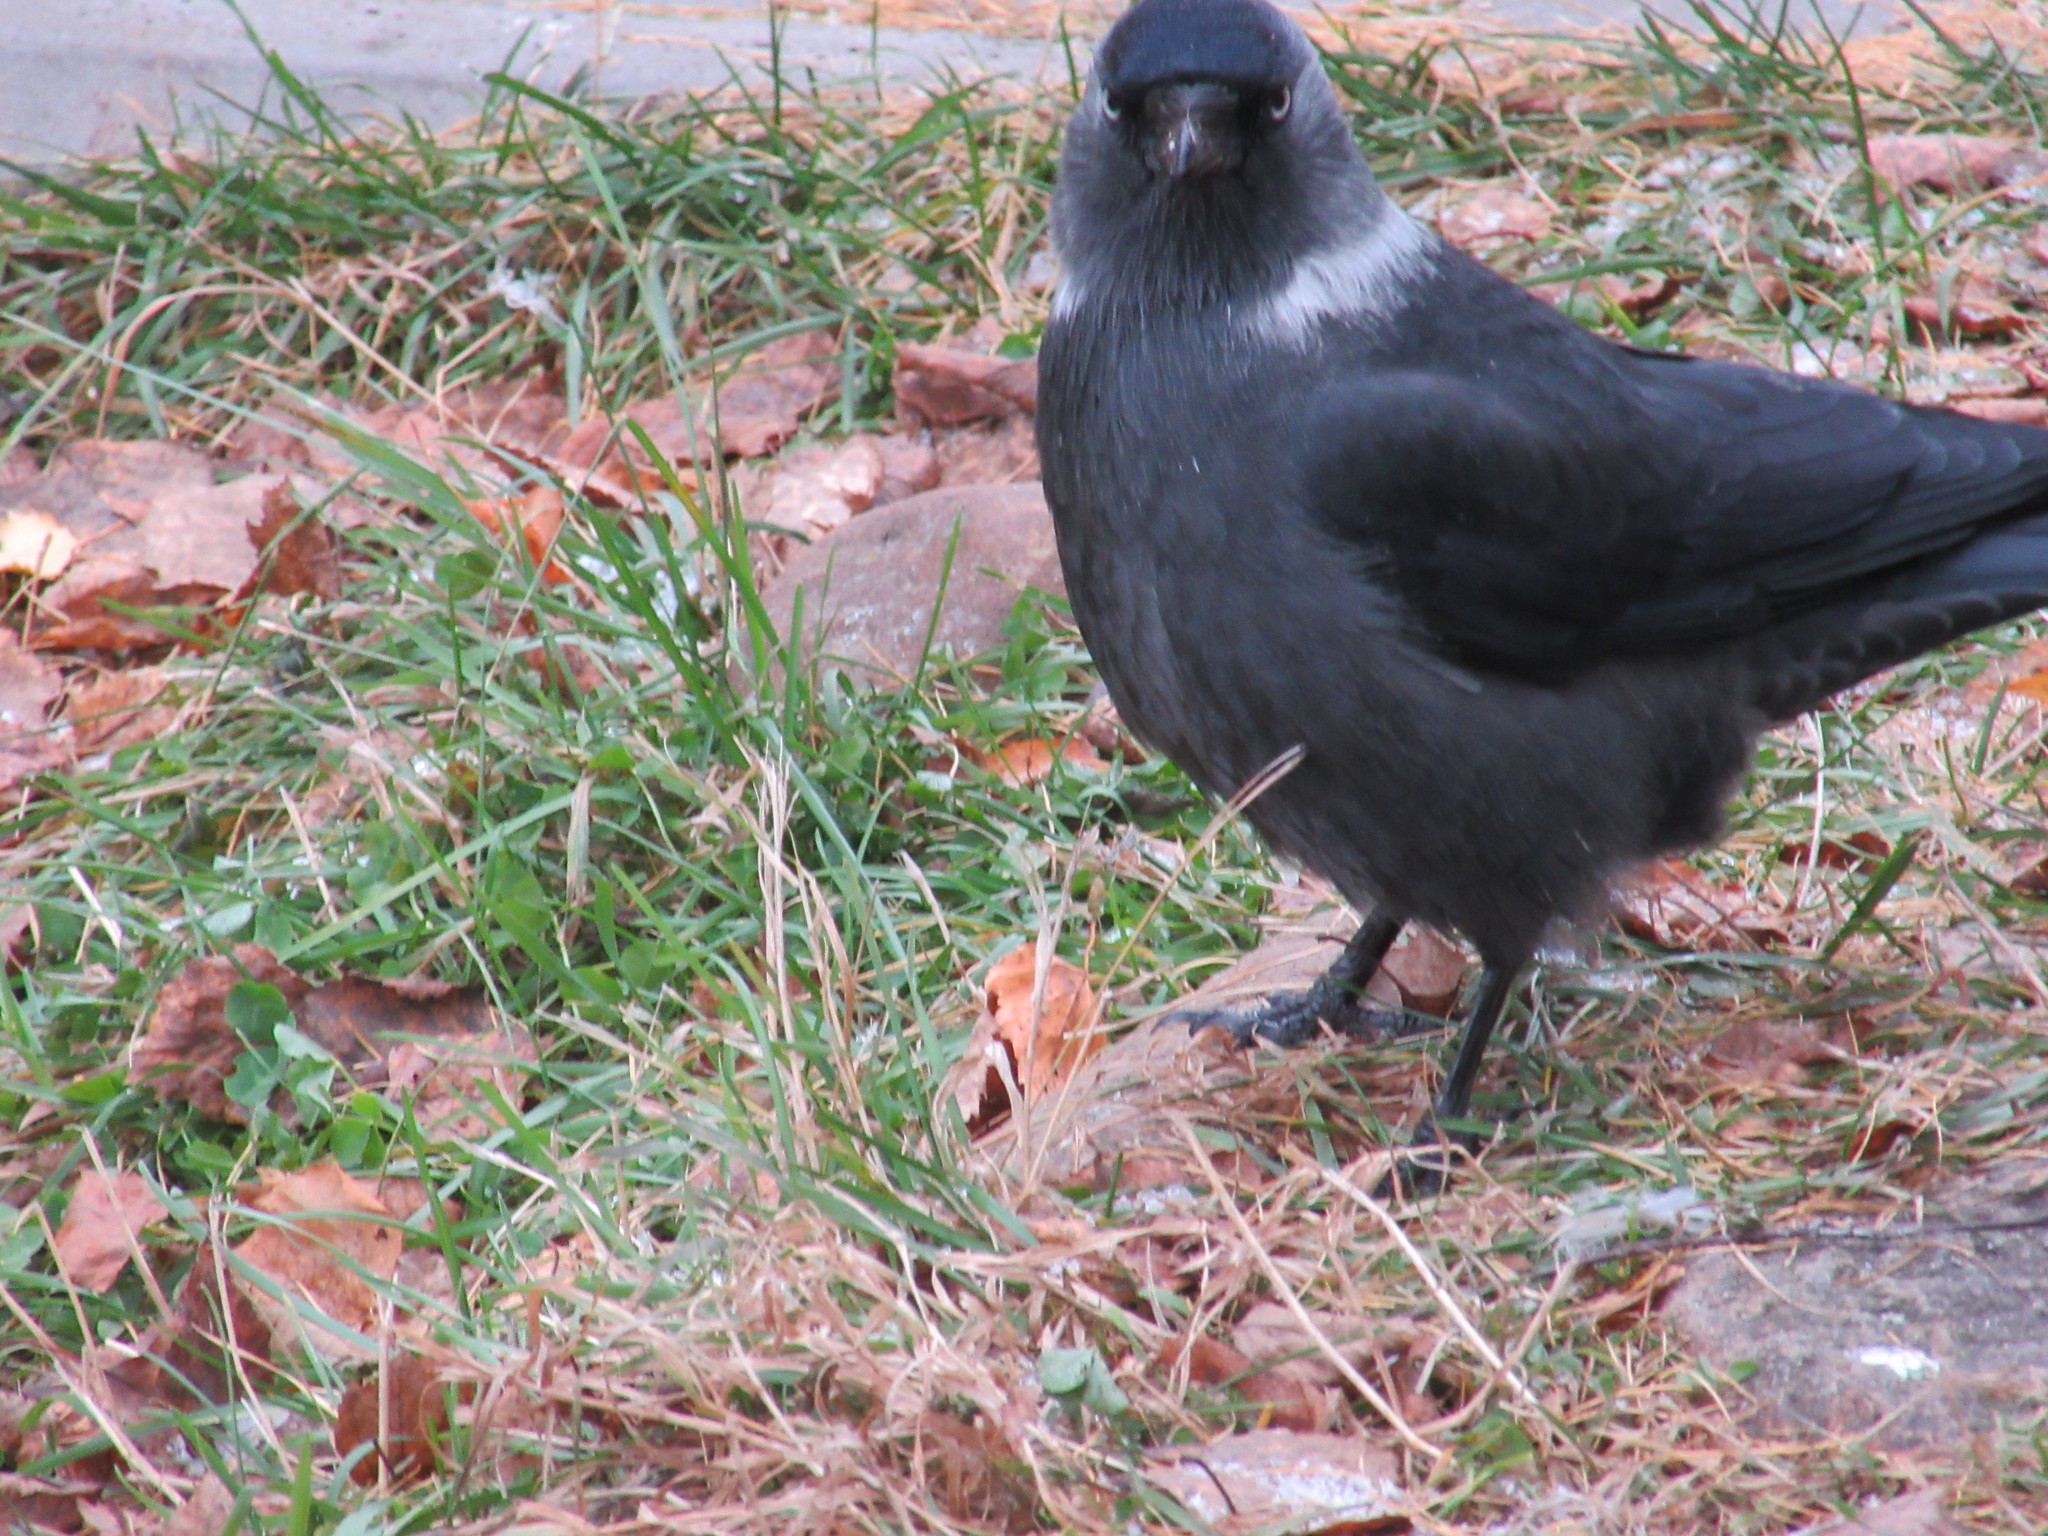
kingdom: Animalia
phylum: Chordata
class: Aves
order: Passeriformes
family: Corvidae
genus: Coloeus
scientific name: Coloeus monedula
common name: Western jackdaw
